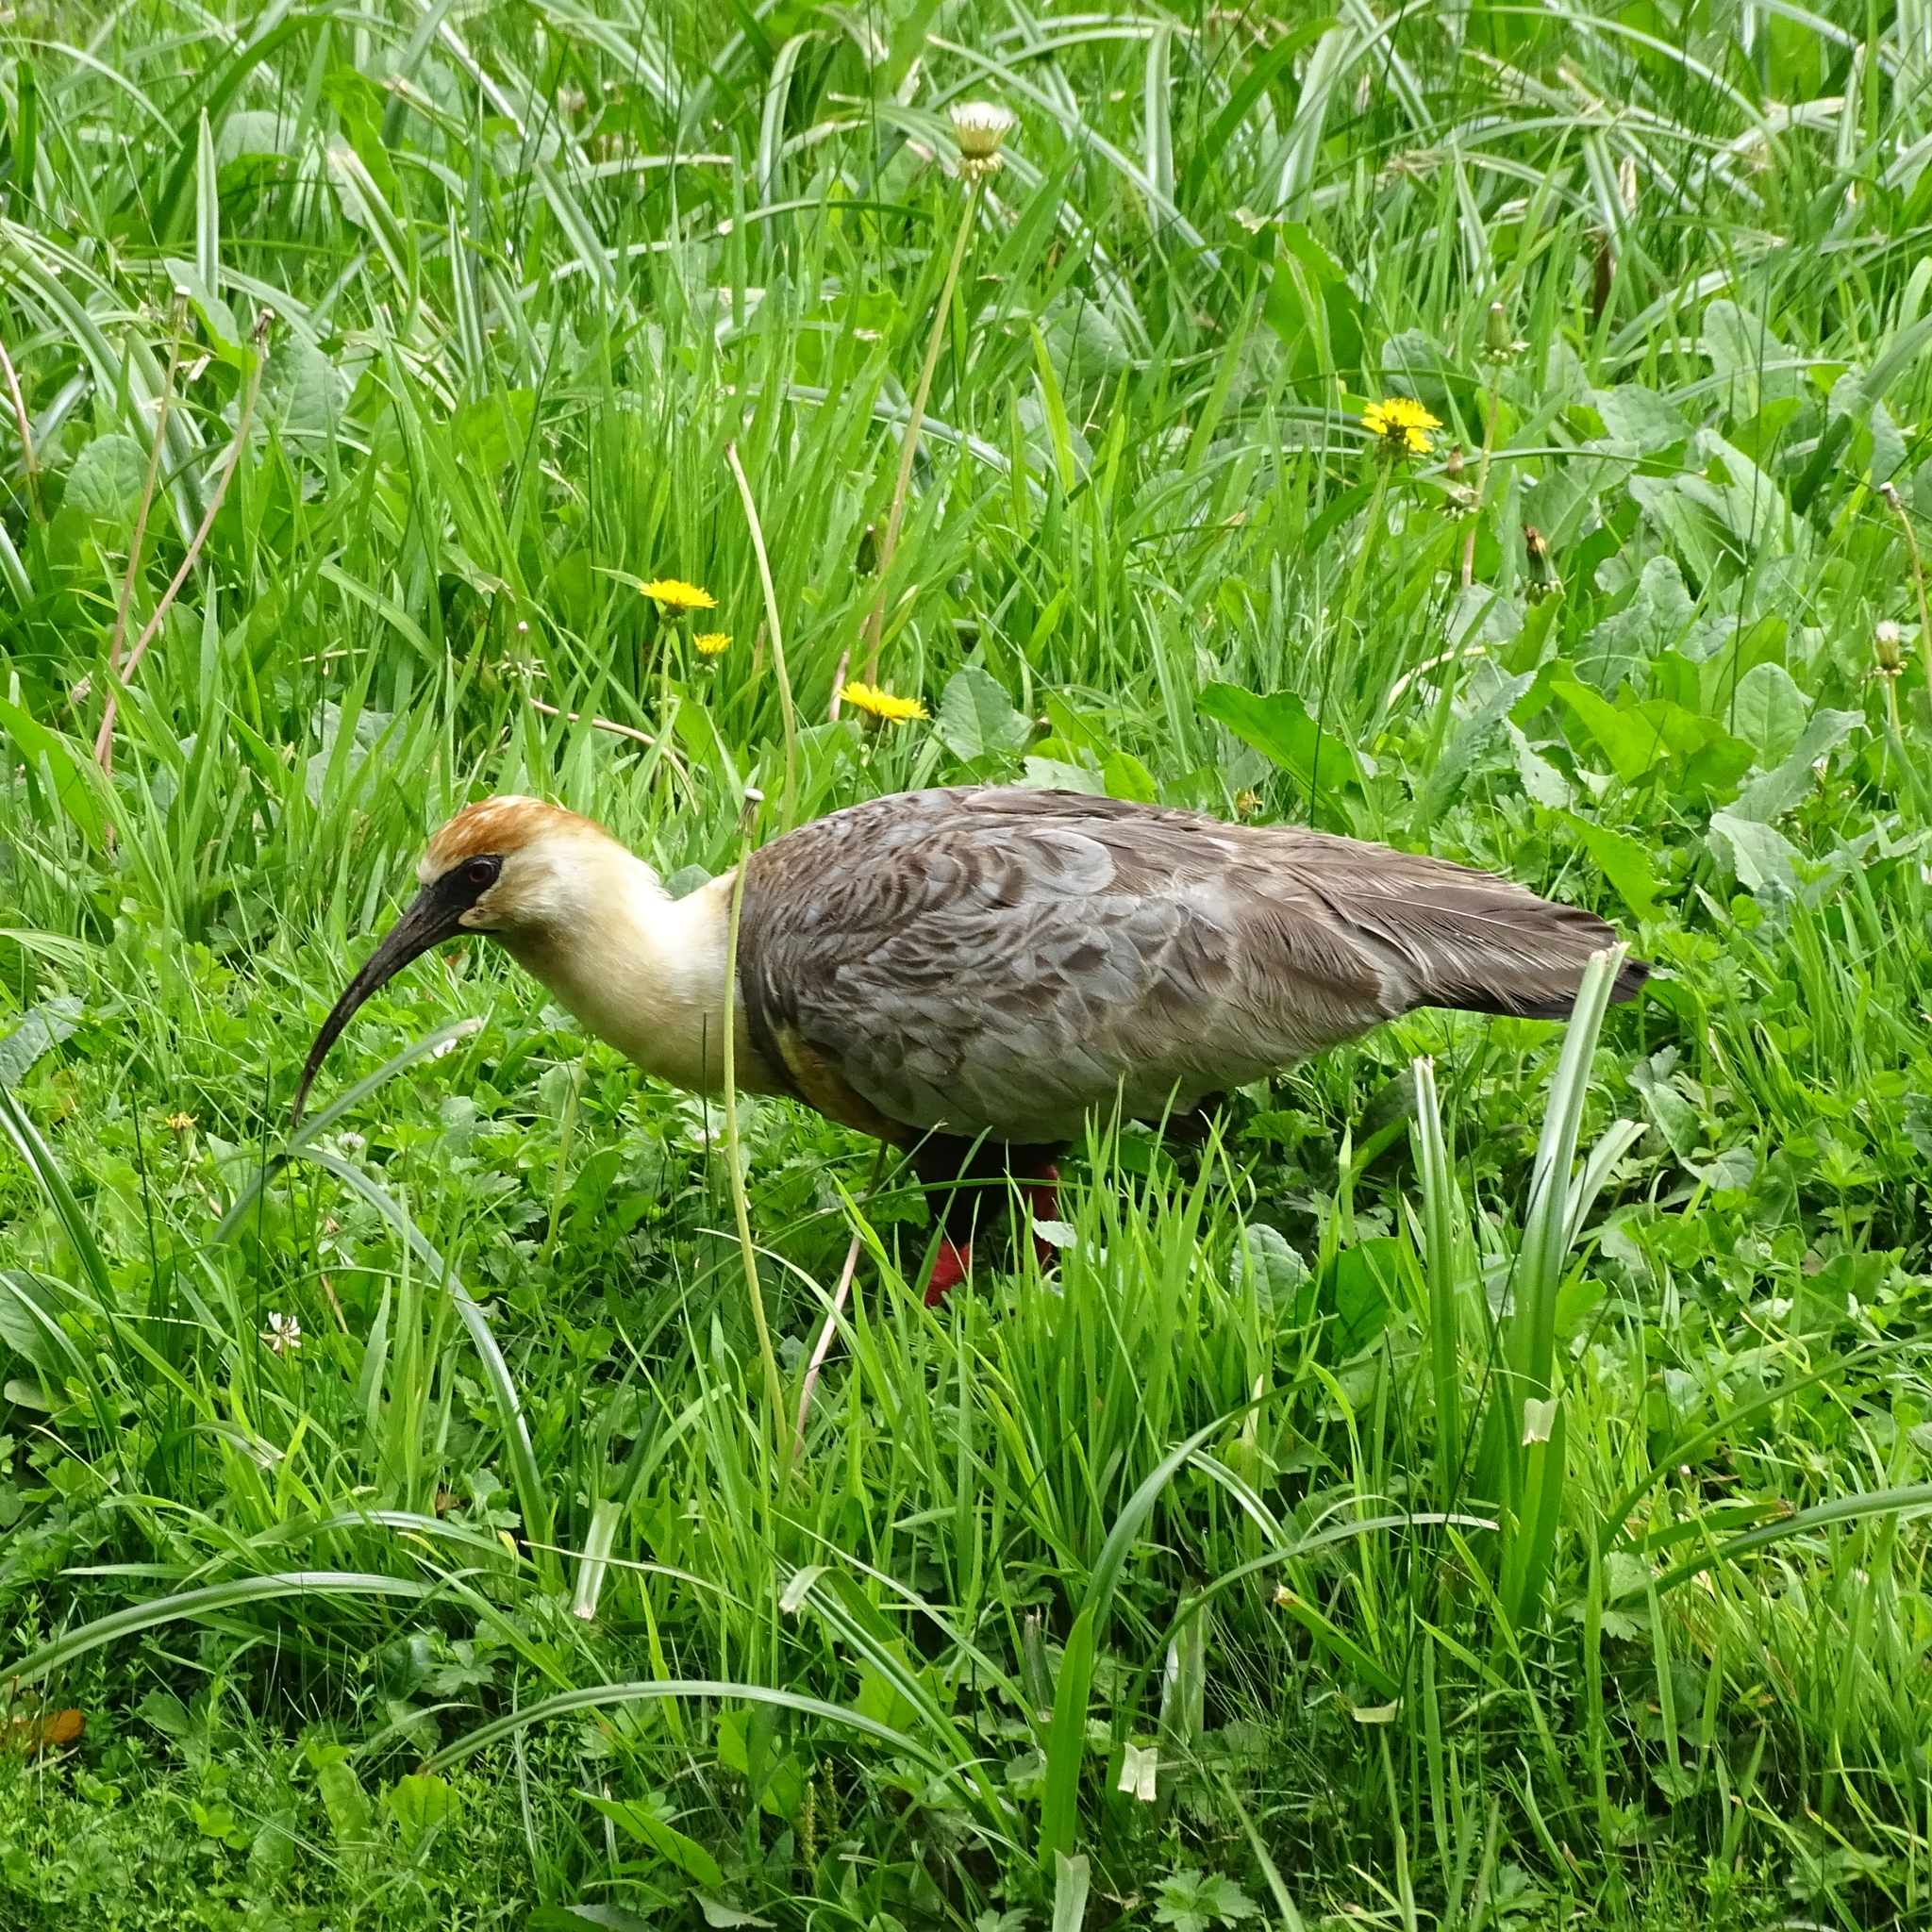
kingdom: Animalia
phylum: Chordata
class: Aves
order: Pelecaniformes
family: Threskiornithidae
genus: Theristicus
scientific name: Theristicus melanopis
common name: Black-faced ibis
